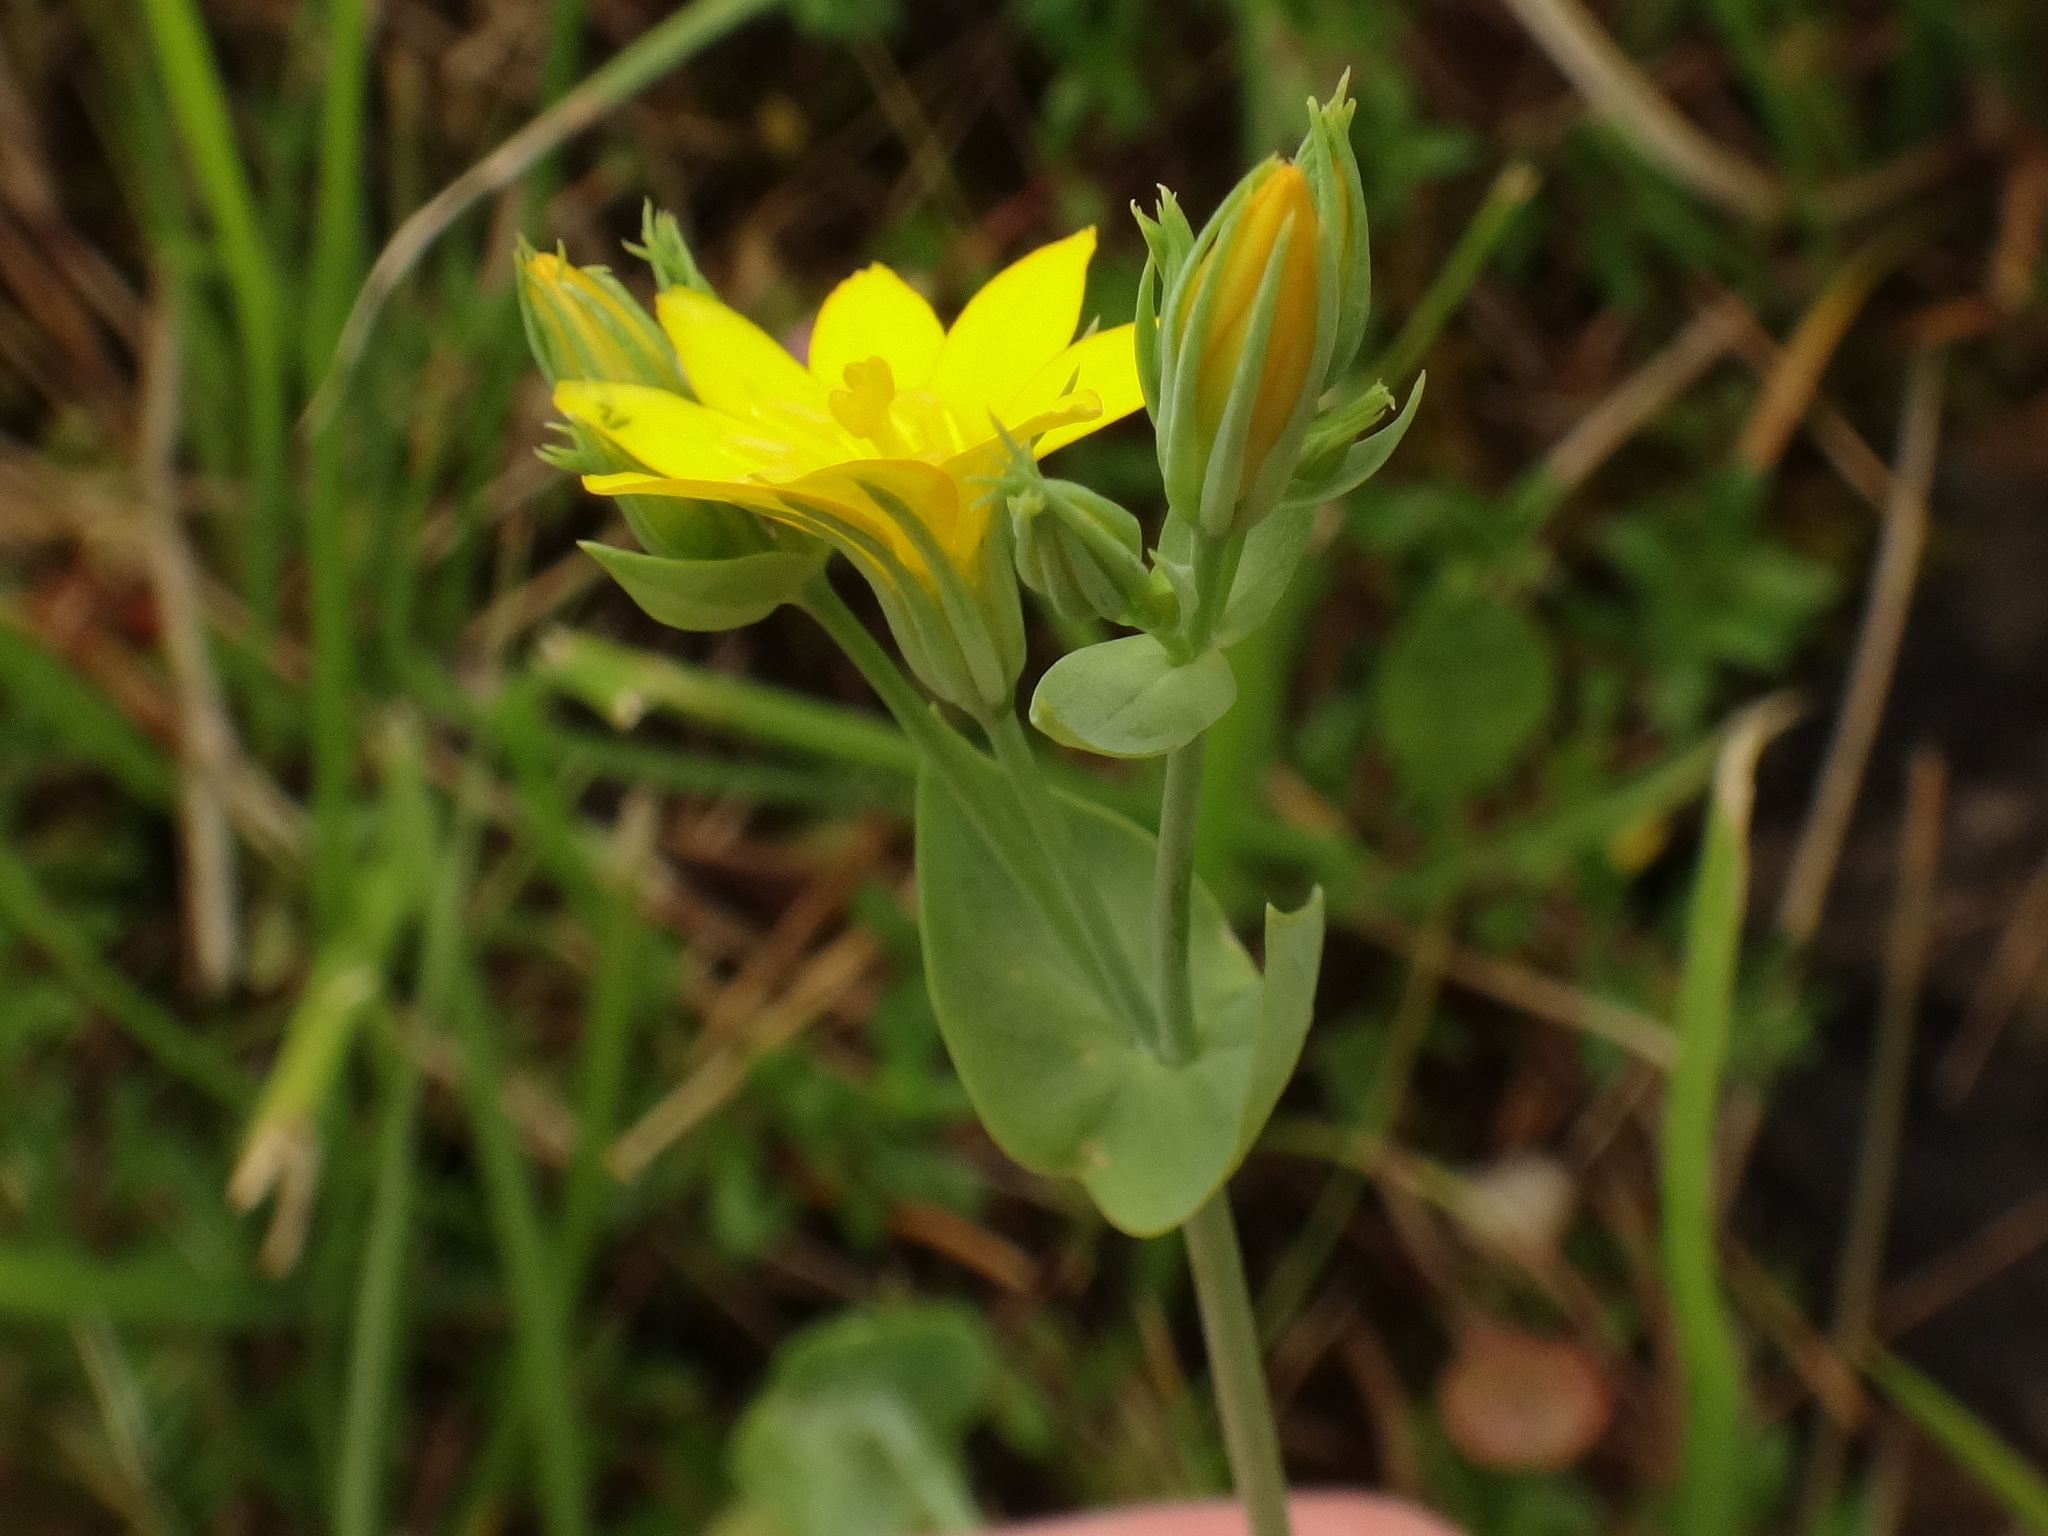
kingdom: Plantae
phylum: Tracheophyta
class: Magnoliopsida
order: Gentianales
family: Gentianaceae
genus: Blackstonia
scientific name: Blackstonia perfoliata
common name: Yellow-wort
